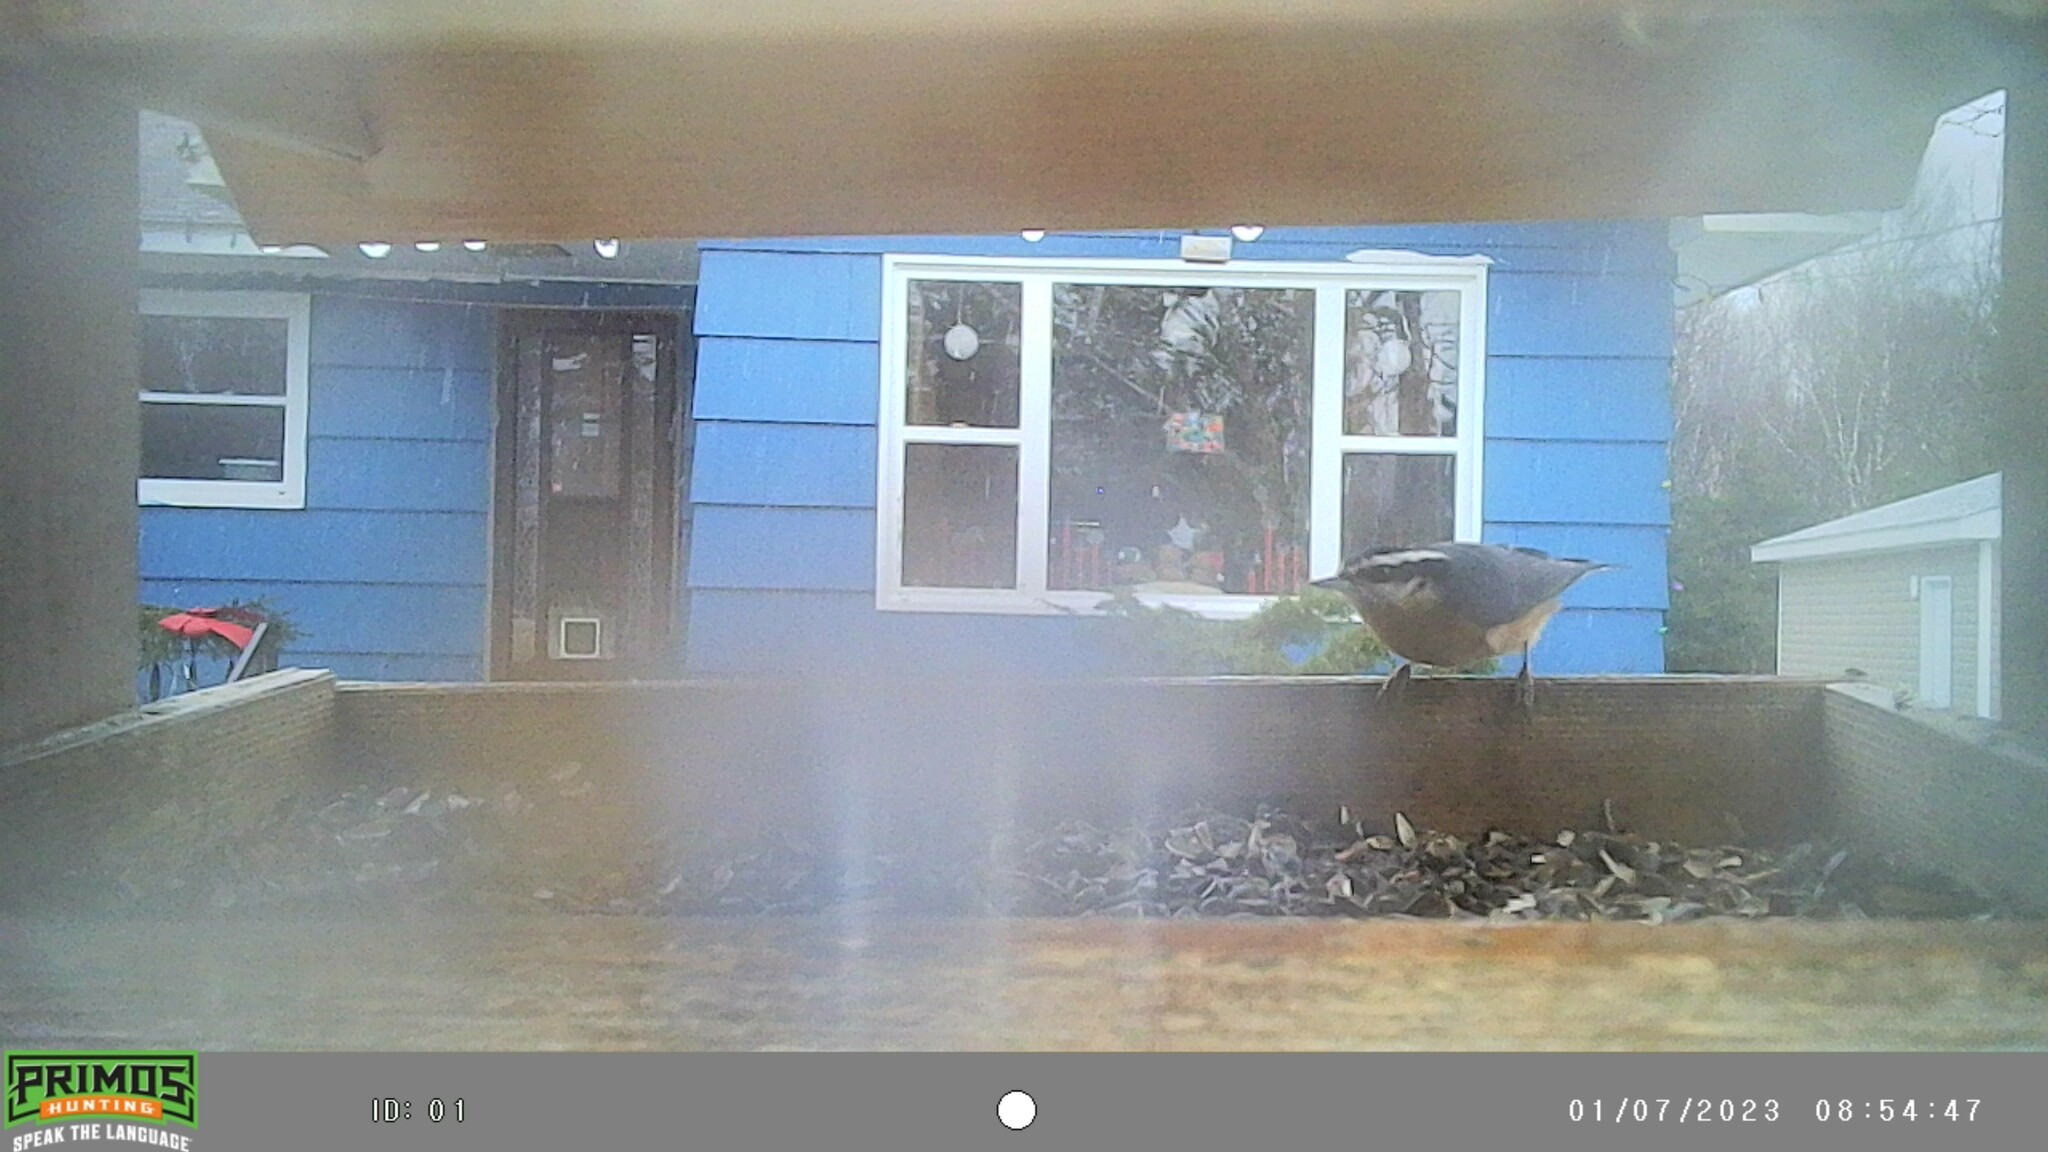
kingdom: Animalia
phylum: Chordata
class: Aves
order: Passeriformes
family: Sittidae
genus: Sitta
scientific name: Sitta canadensis
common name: Red-breasted nuthatch
